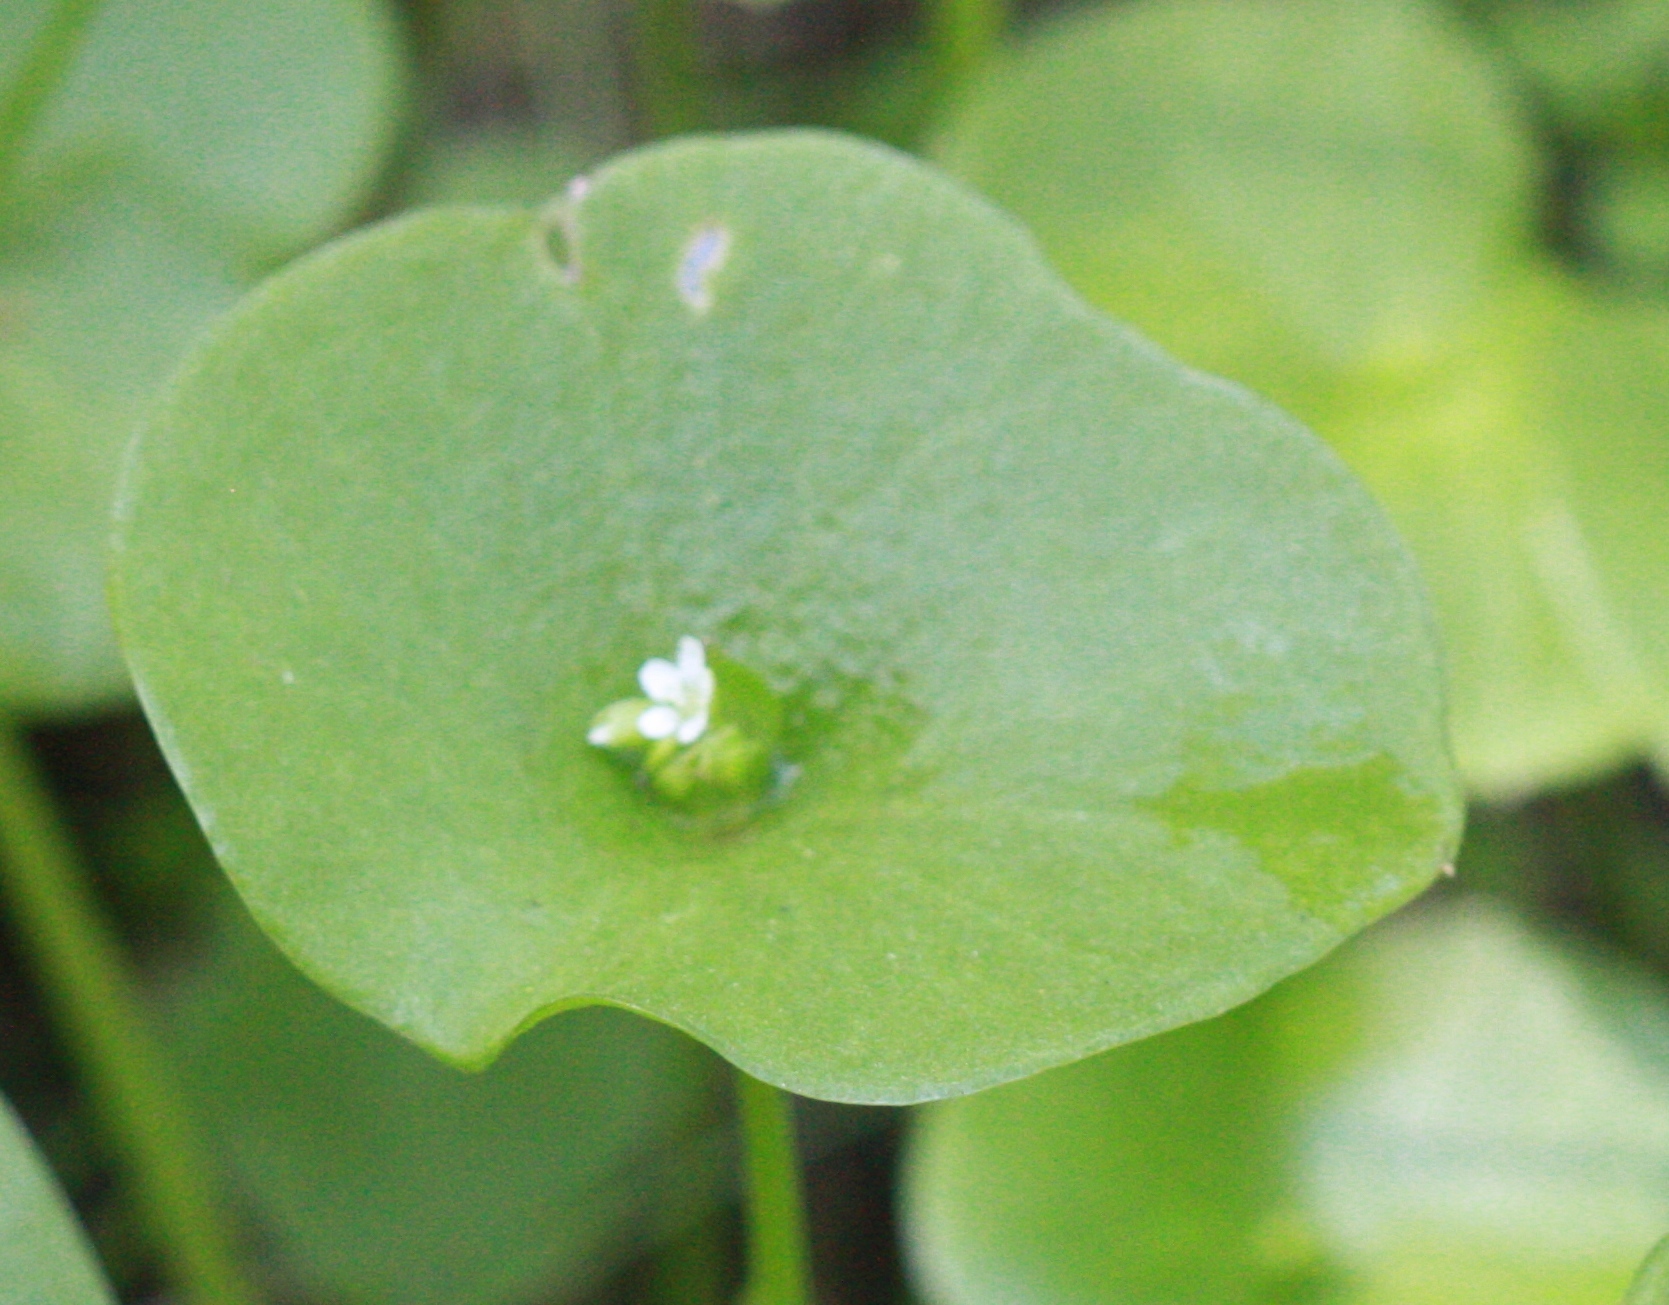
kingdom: Plantae
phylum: Tracheophyta
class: Magnoliopsida
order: Caryophyllales
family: Montiaceae
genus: Claytonia
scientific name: Claytonia perfoliata
